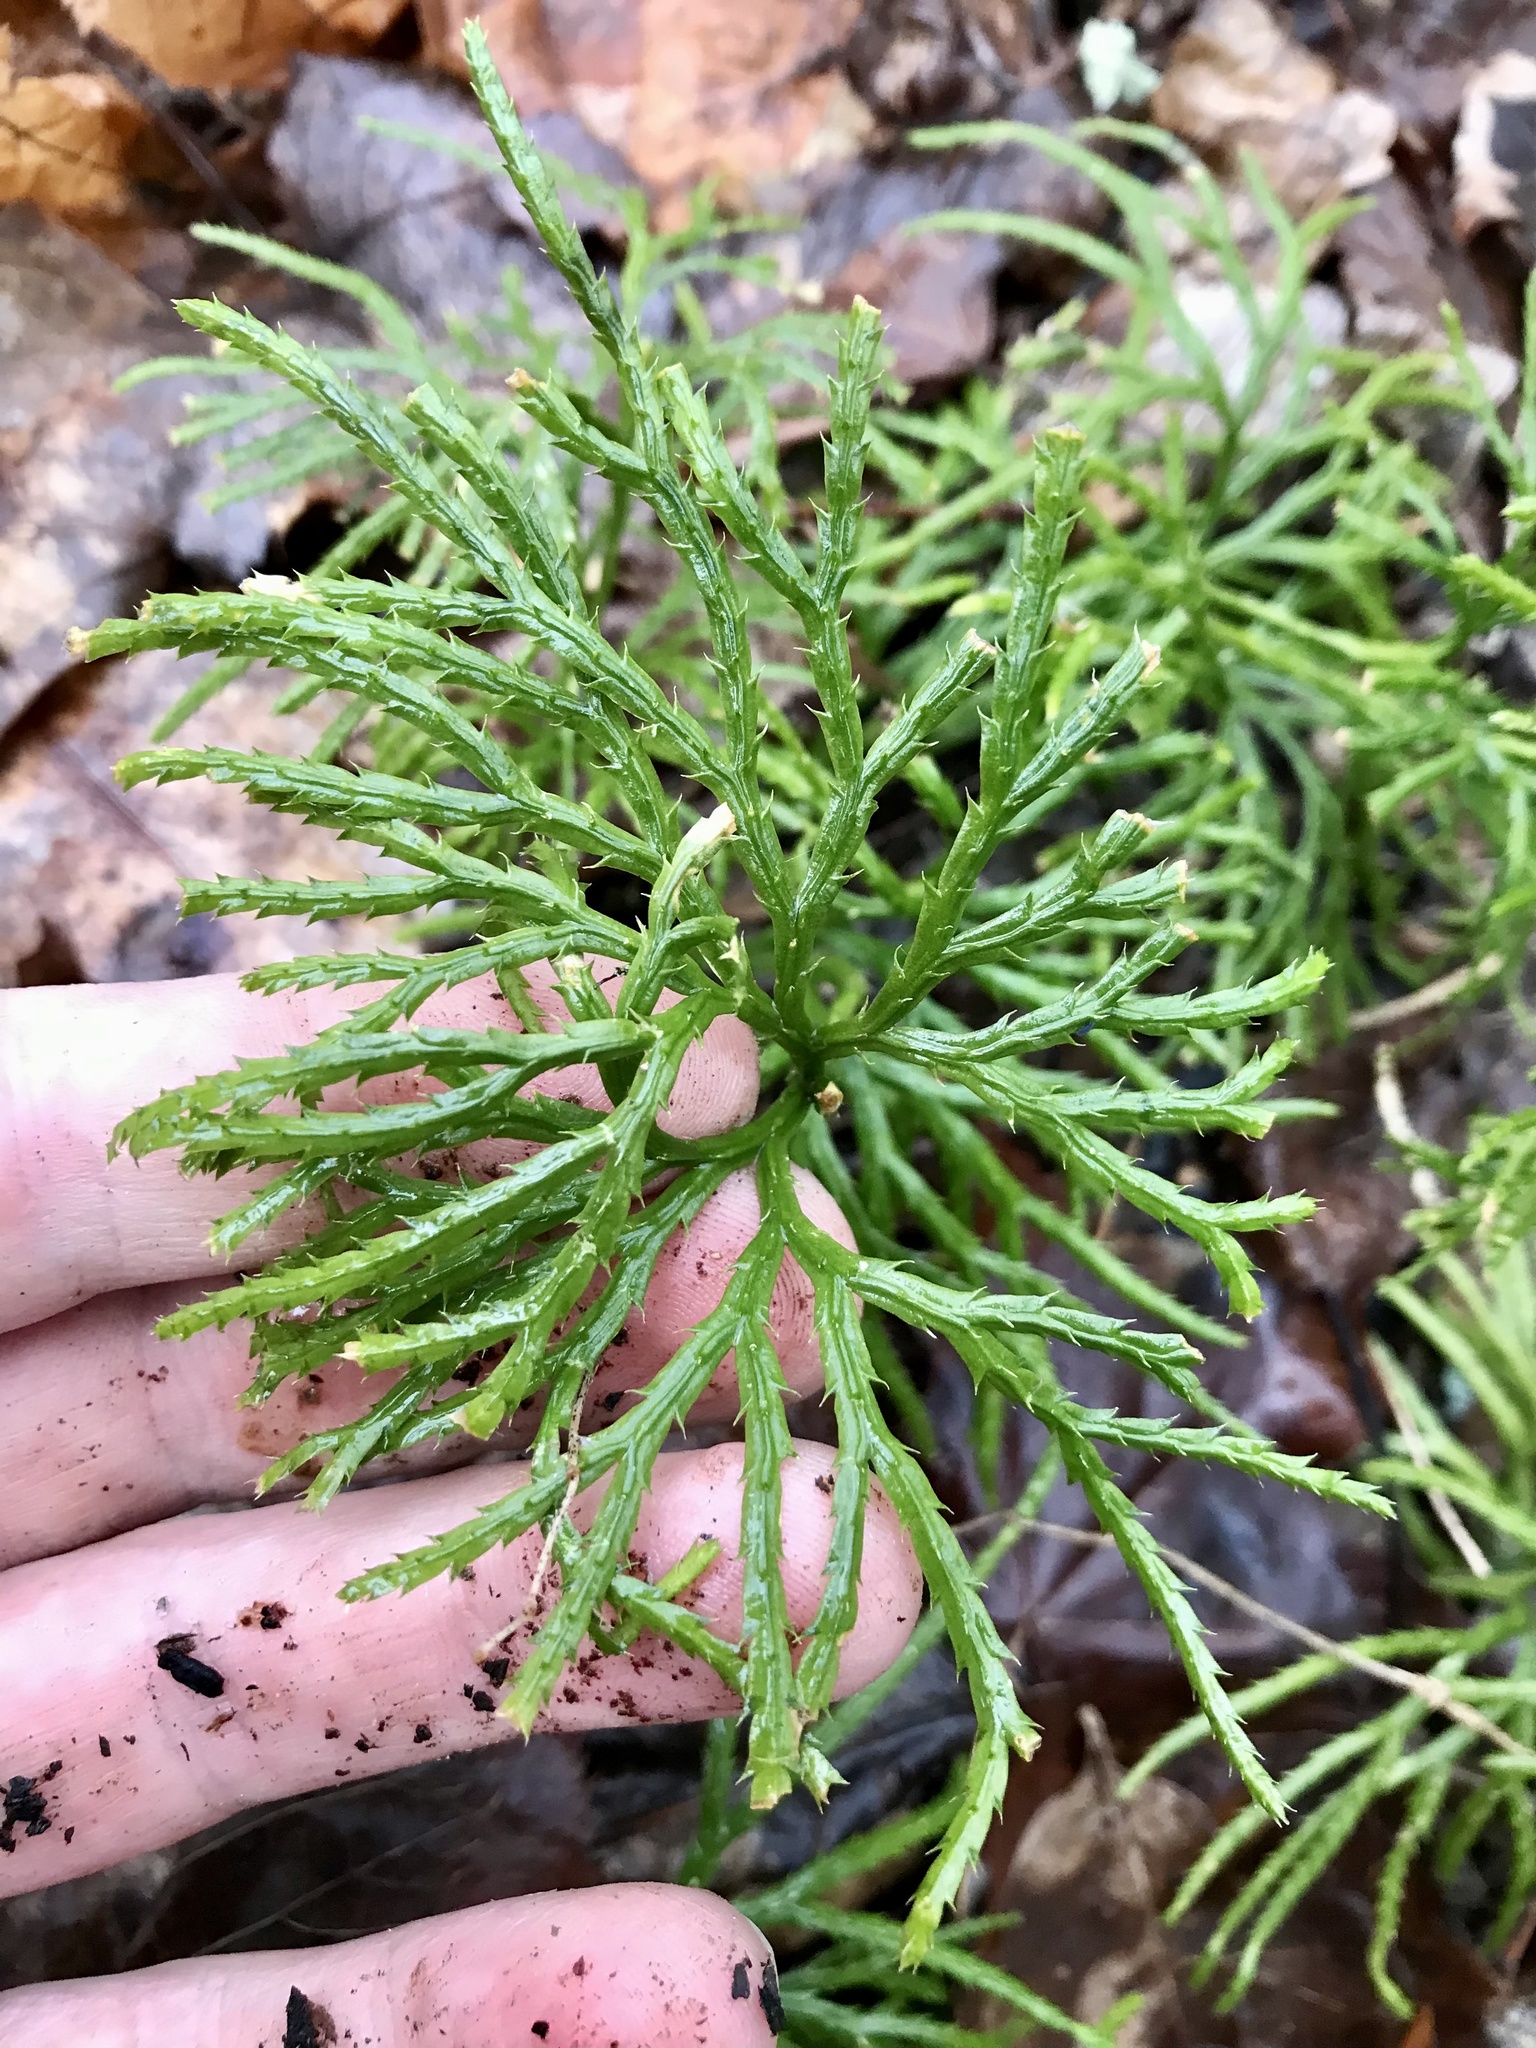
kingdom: Plantae
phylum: Tracheophyta
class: Lycopodiopsida
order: Lycopodiales
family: Lycopodiaceae
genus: Diphasiastrum
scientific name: Diphasiastrum digitatum
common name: Southern running-pine
